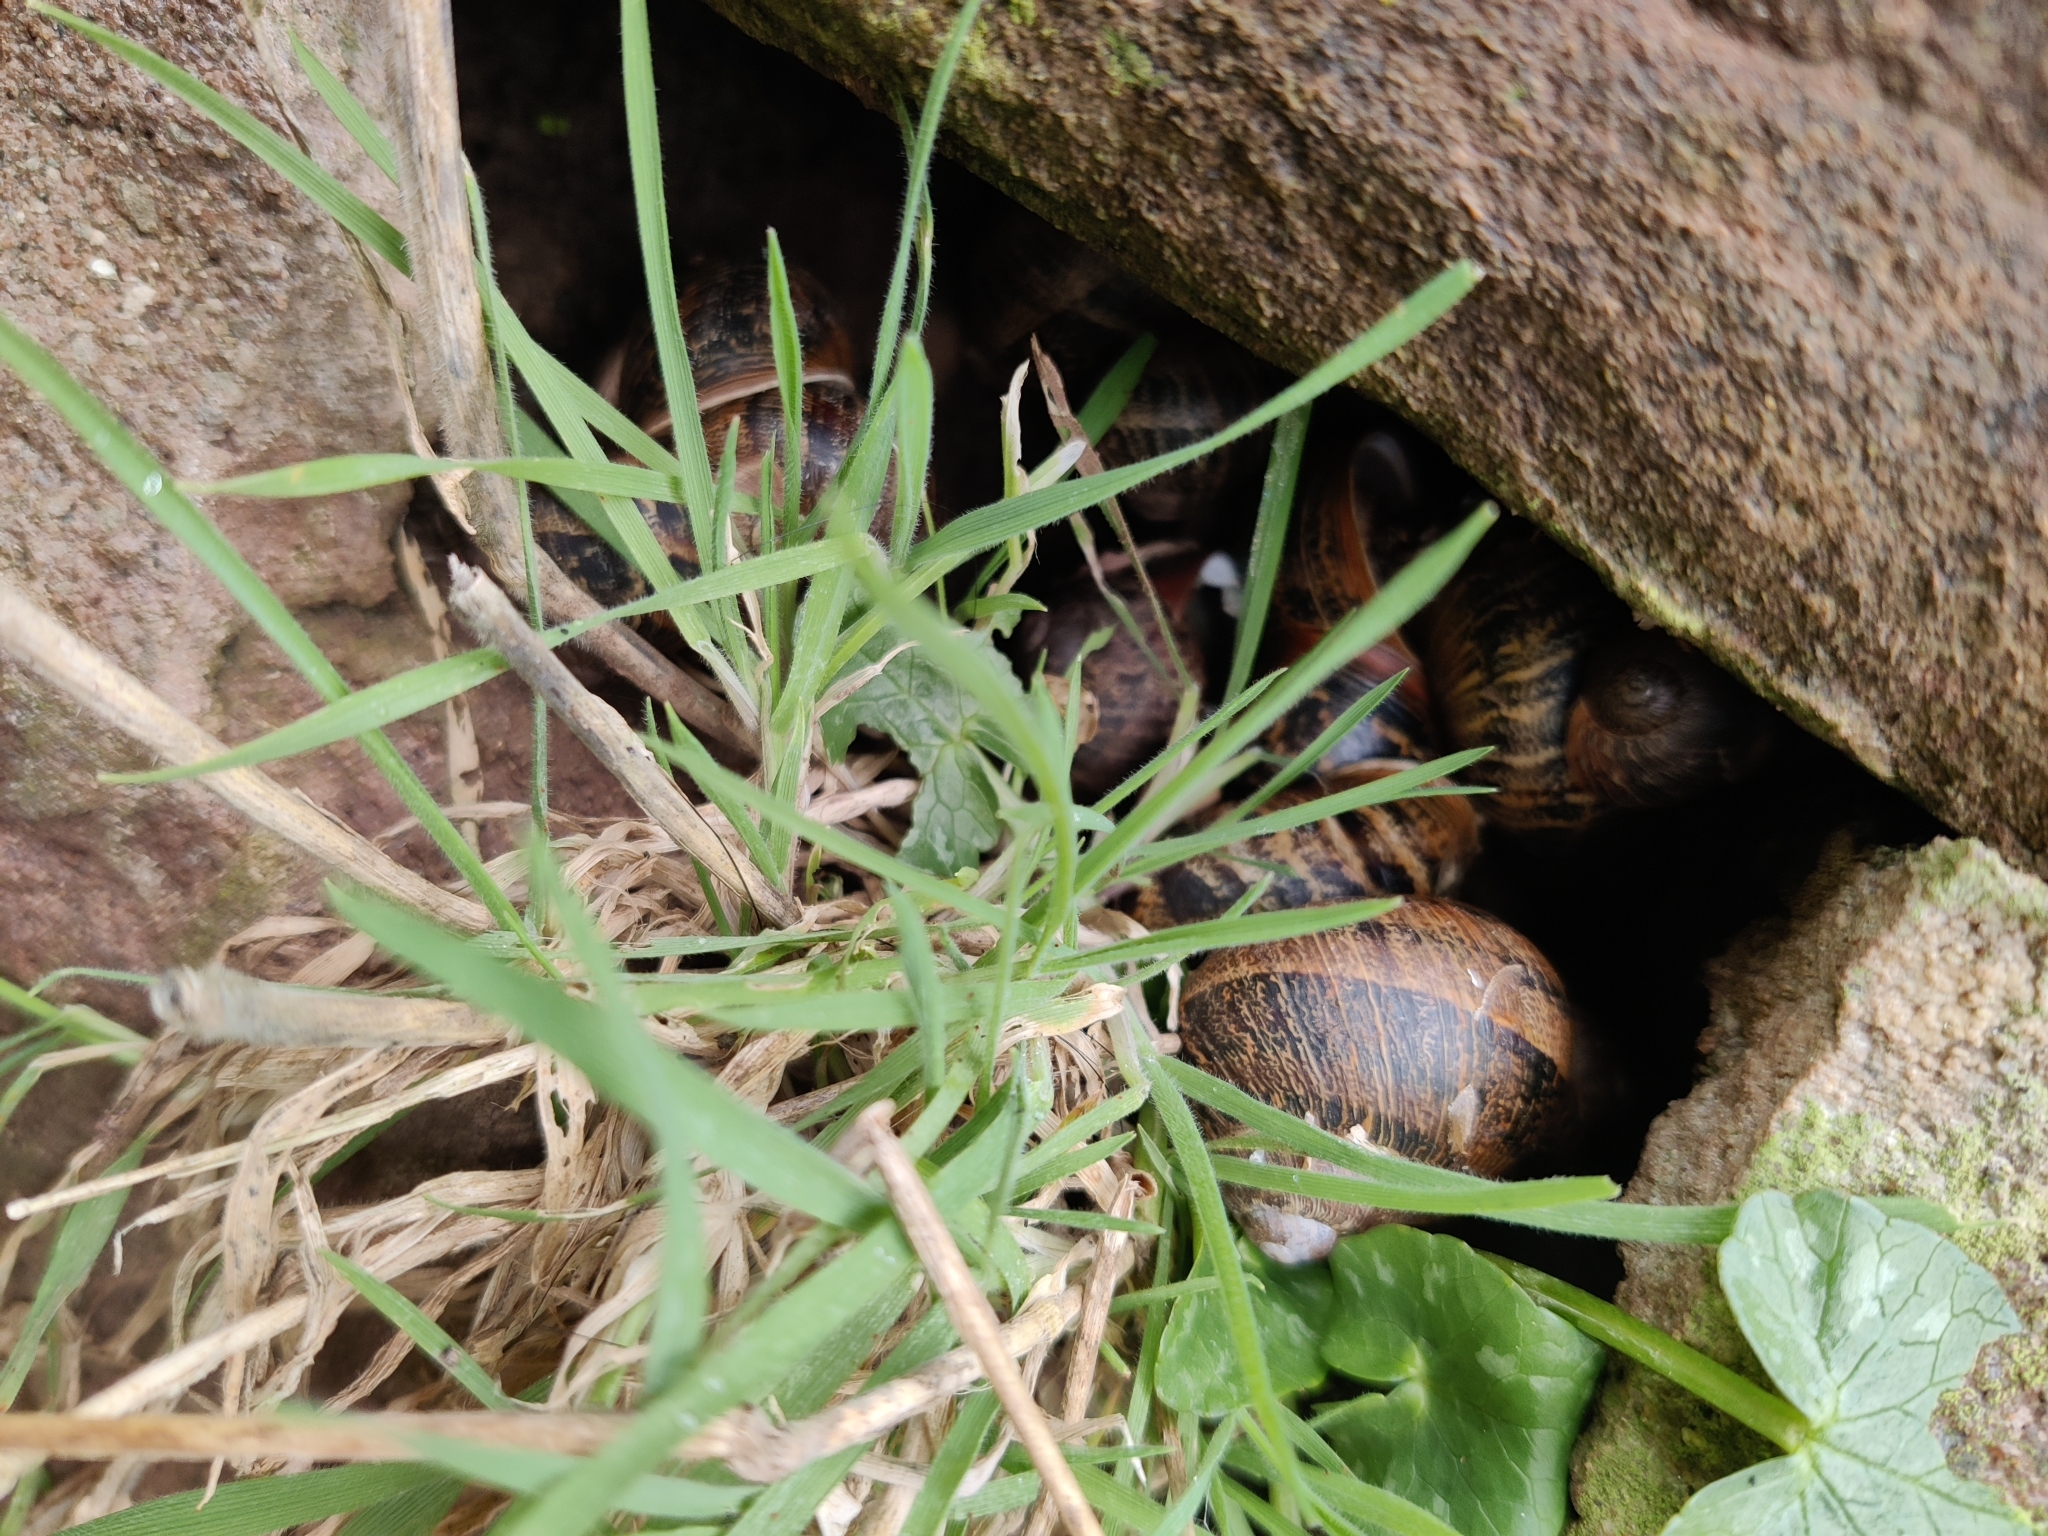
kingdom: Animalia
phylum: Mollusca
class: Gastropoda
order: Stylommatophora
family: Helicidae
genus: Cornu
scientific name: Cornu aspersum
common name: Brown garden snail
